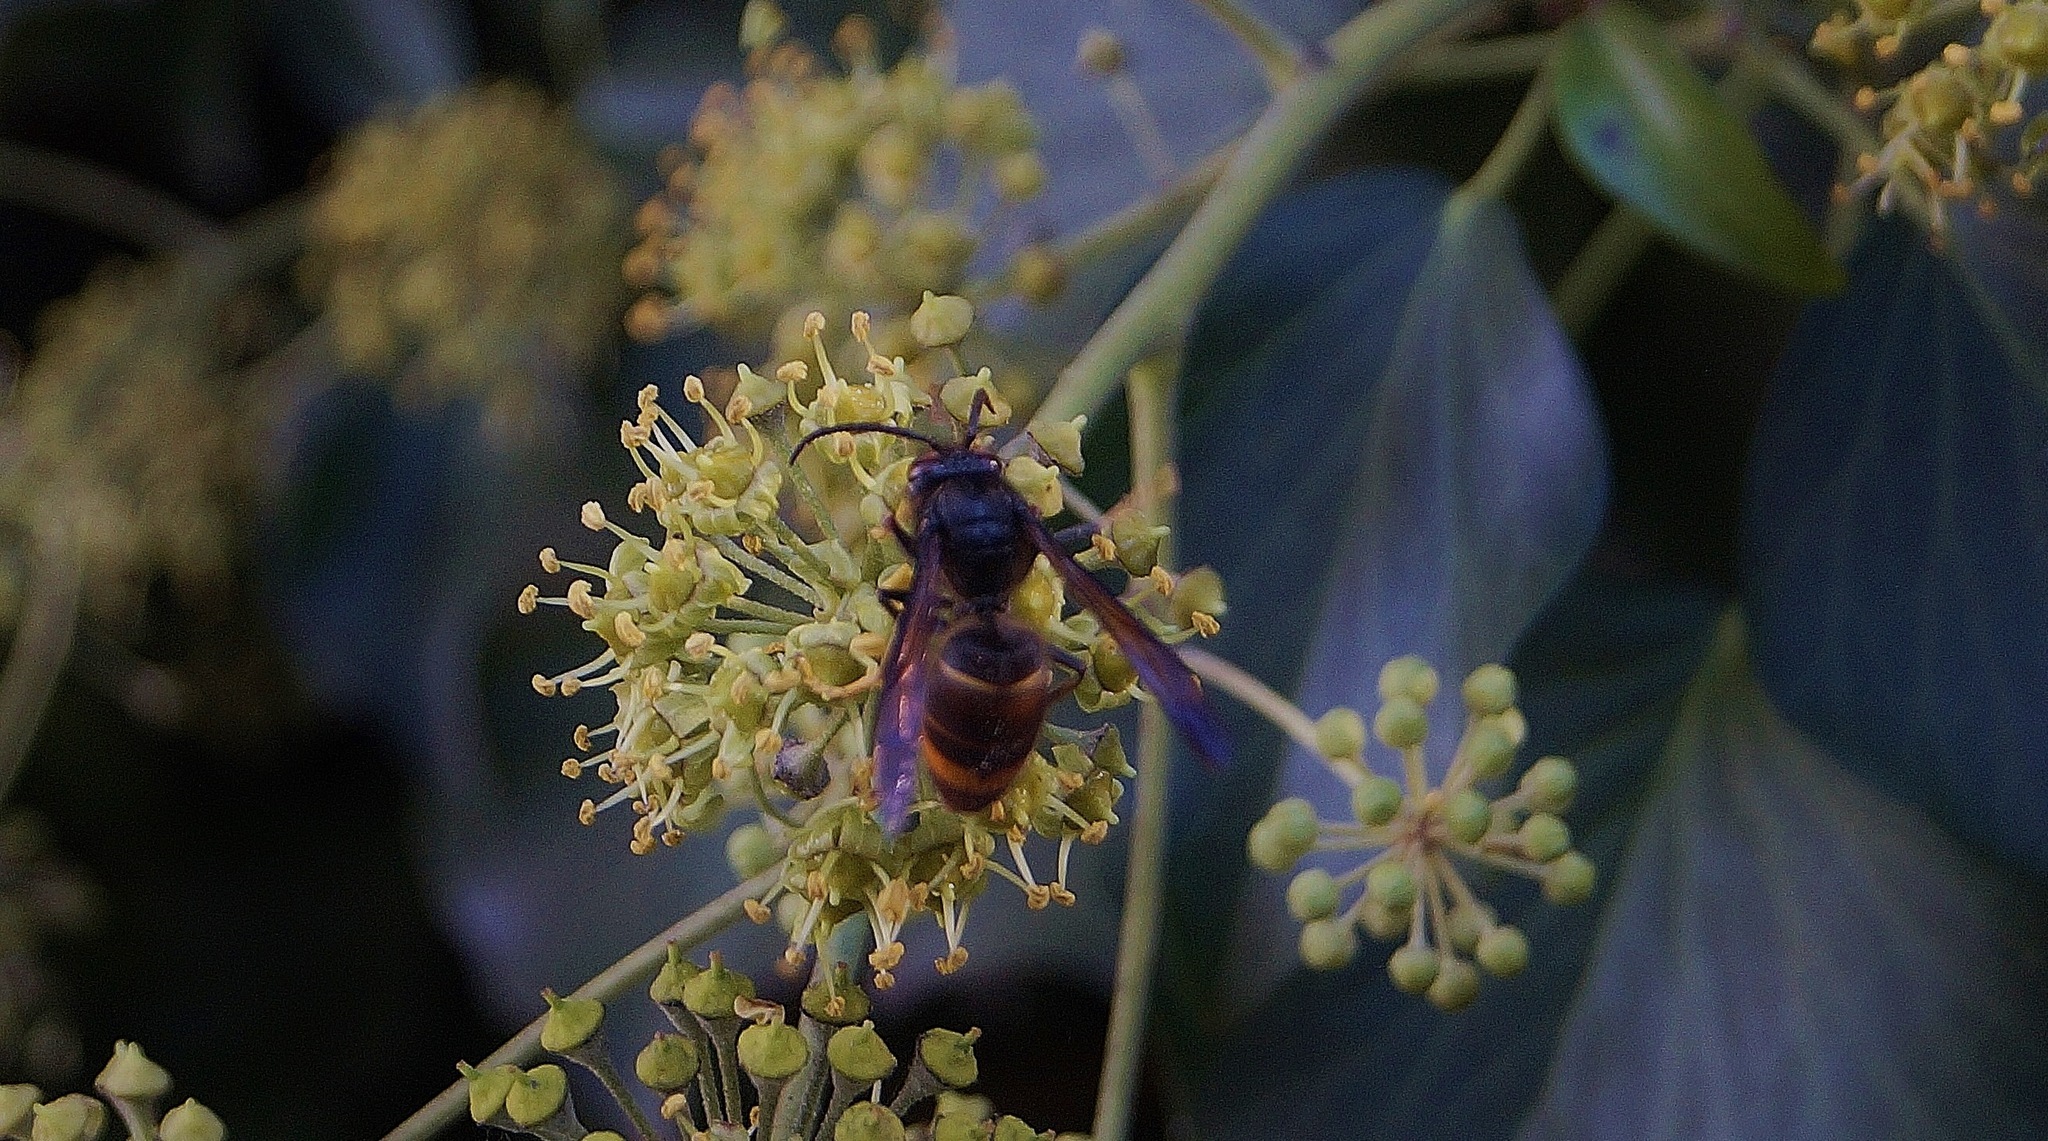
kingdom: Animalia
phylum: Arthropoda
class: Insecta
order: Hymenoptera
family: Vespidae
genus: Vespa
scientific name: Vespa velutina
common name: Asian hornet
